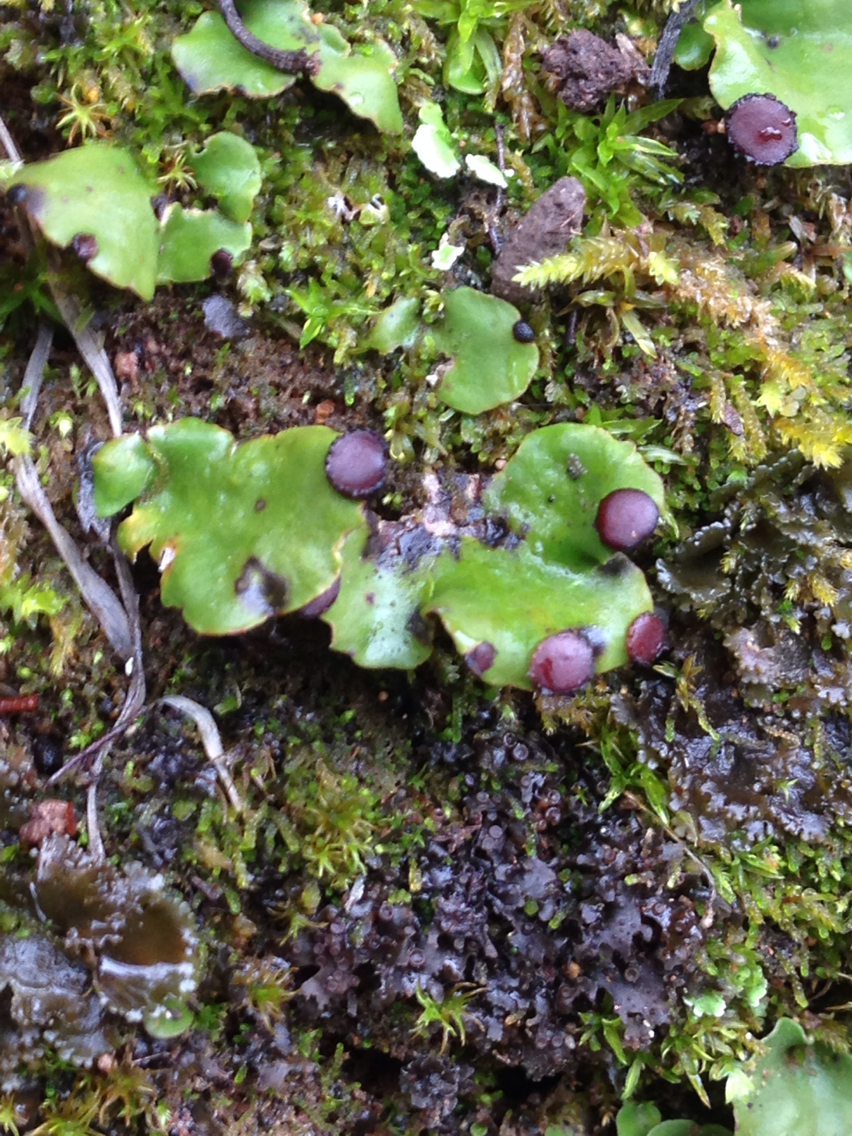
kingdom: Fungi
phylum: Ascomycota
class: Lecanoromycetes
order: Peltigerales
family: Peltigeraceae
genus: Peltigera
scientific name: Peltigera venosa
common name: Pixie gowns lichen
